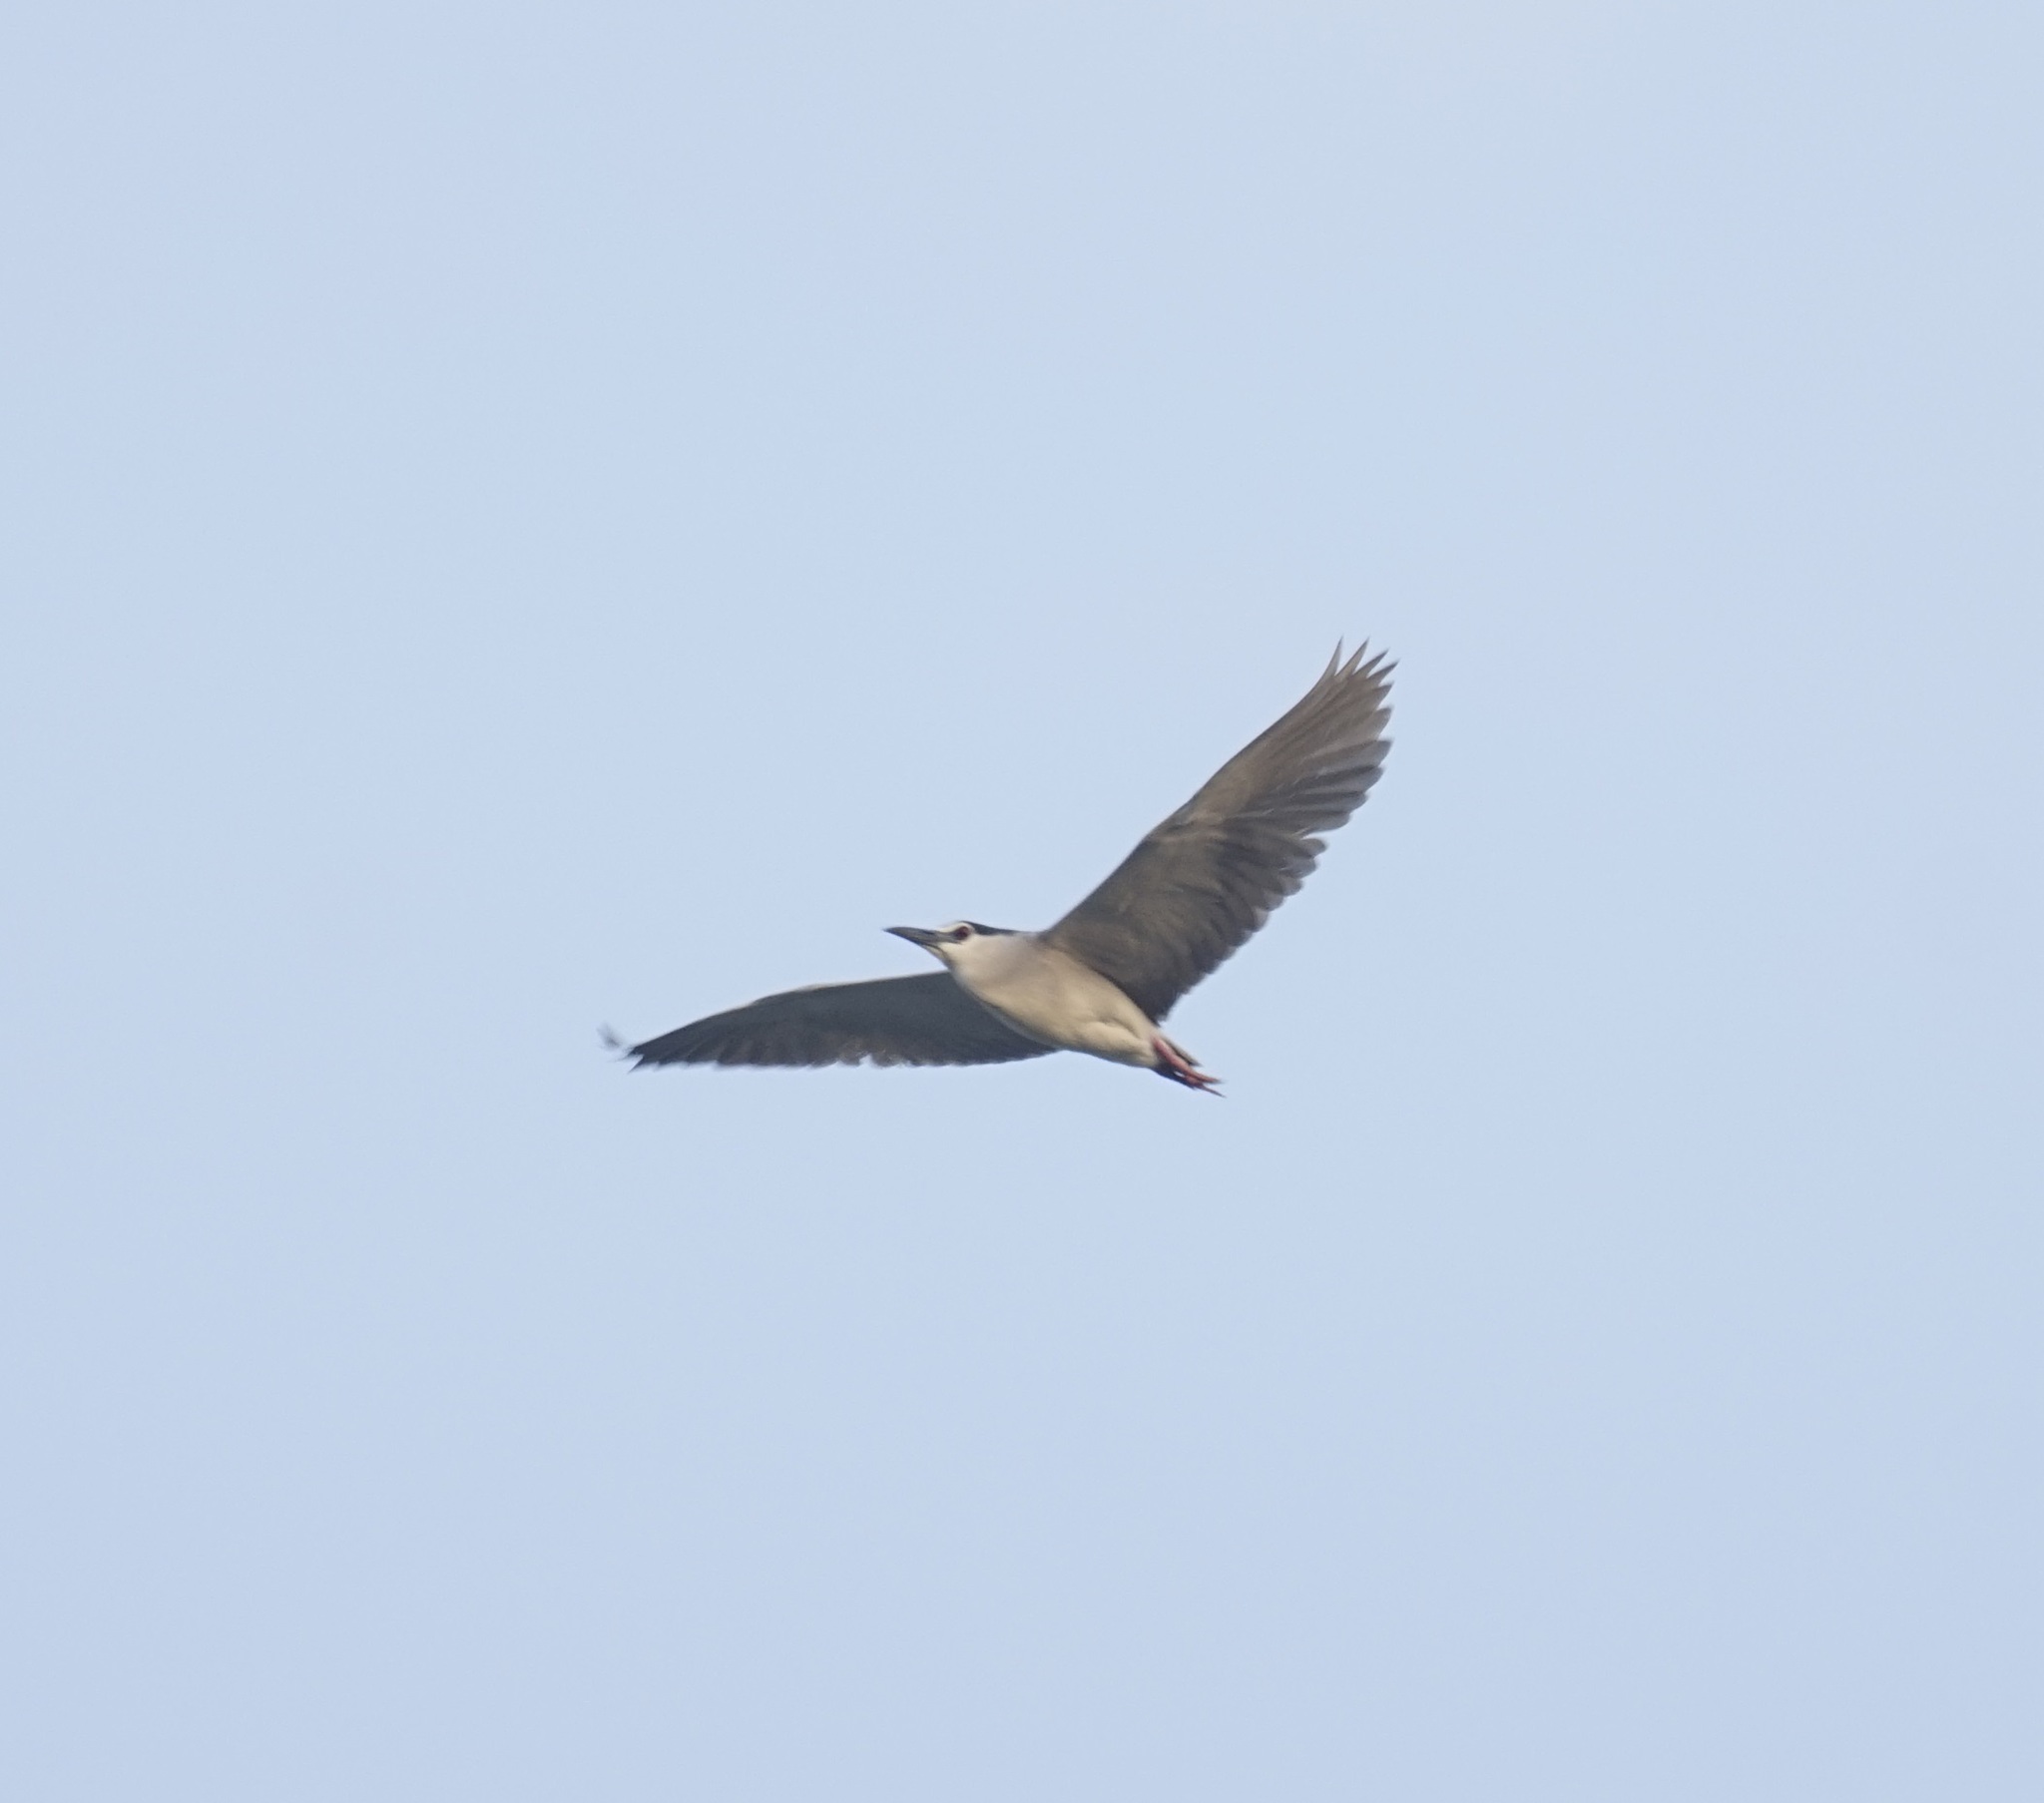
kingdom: Animalia
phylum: Chordata
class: Aves
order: Pelecaniformes
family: Ardeidae
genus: Nycticorax
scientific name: Nycticorax nycticorax
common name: Black-crowned night heron
